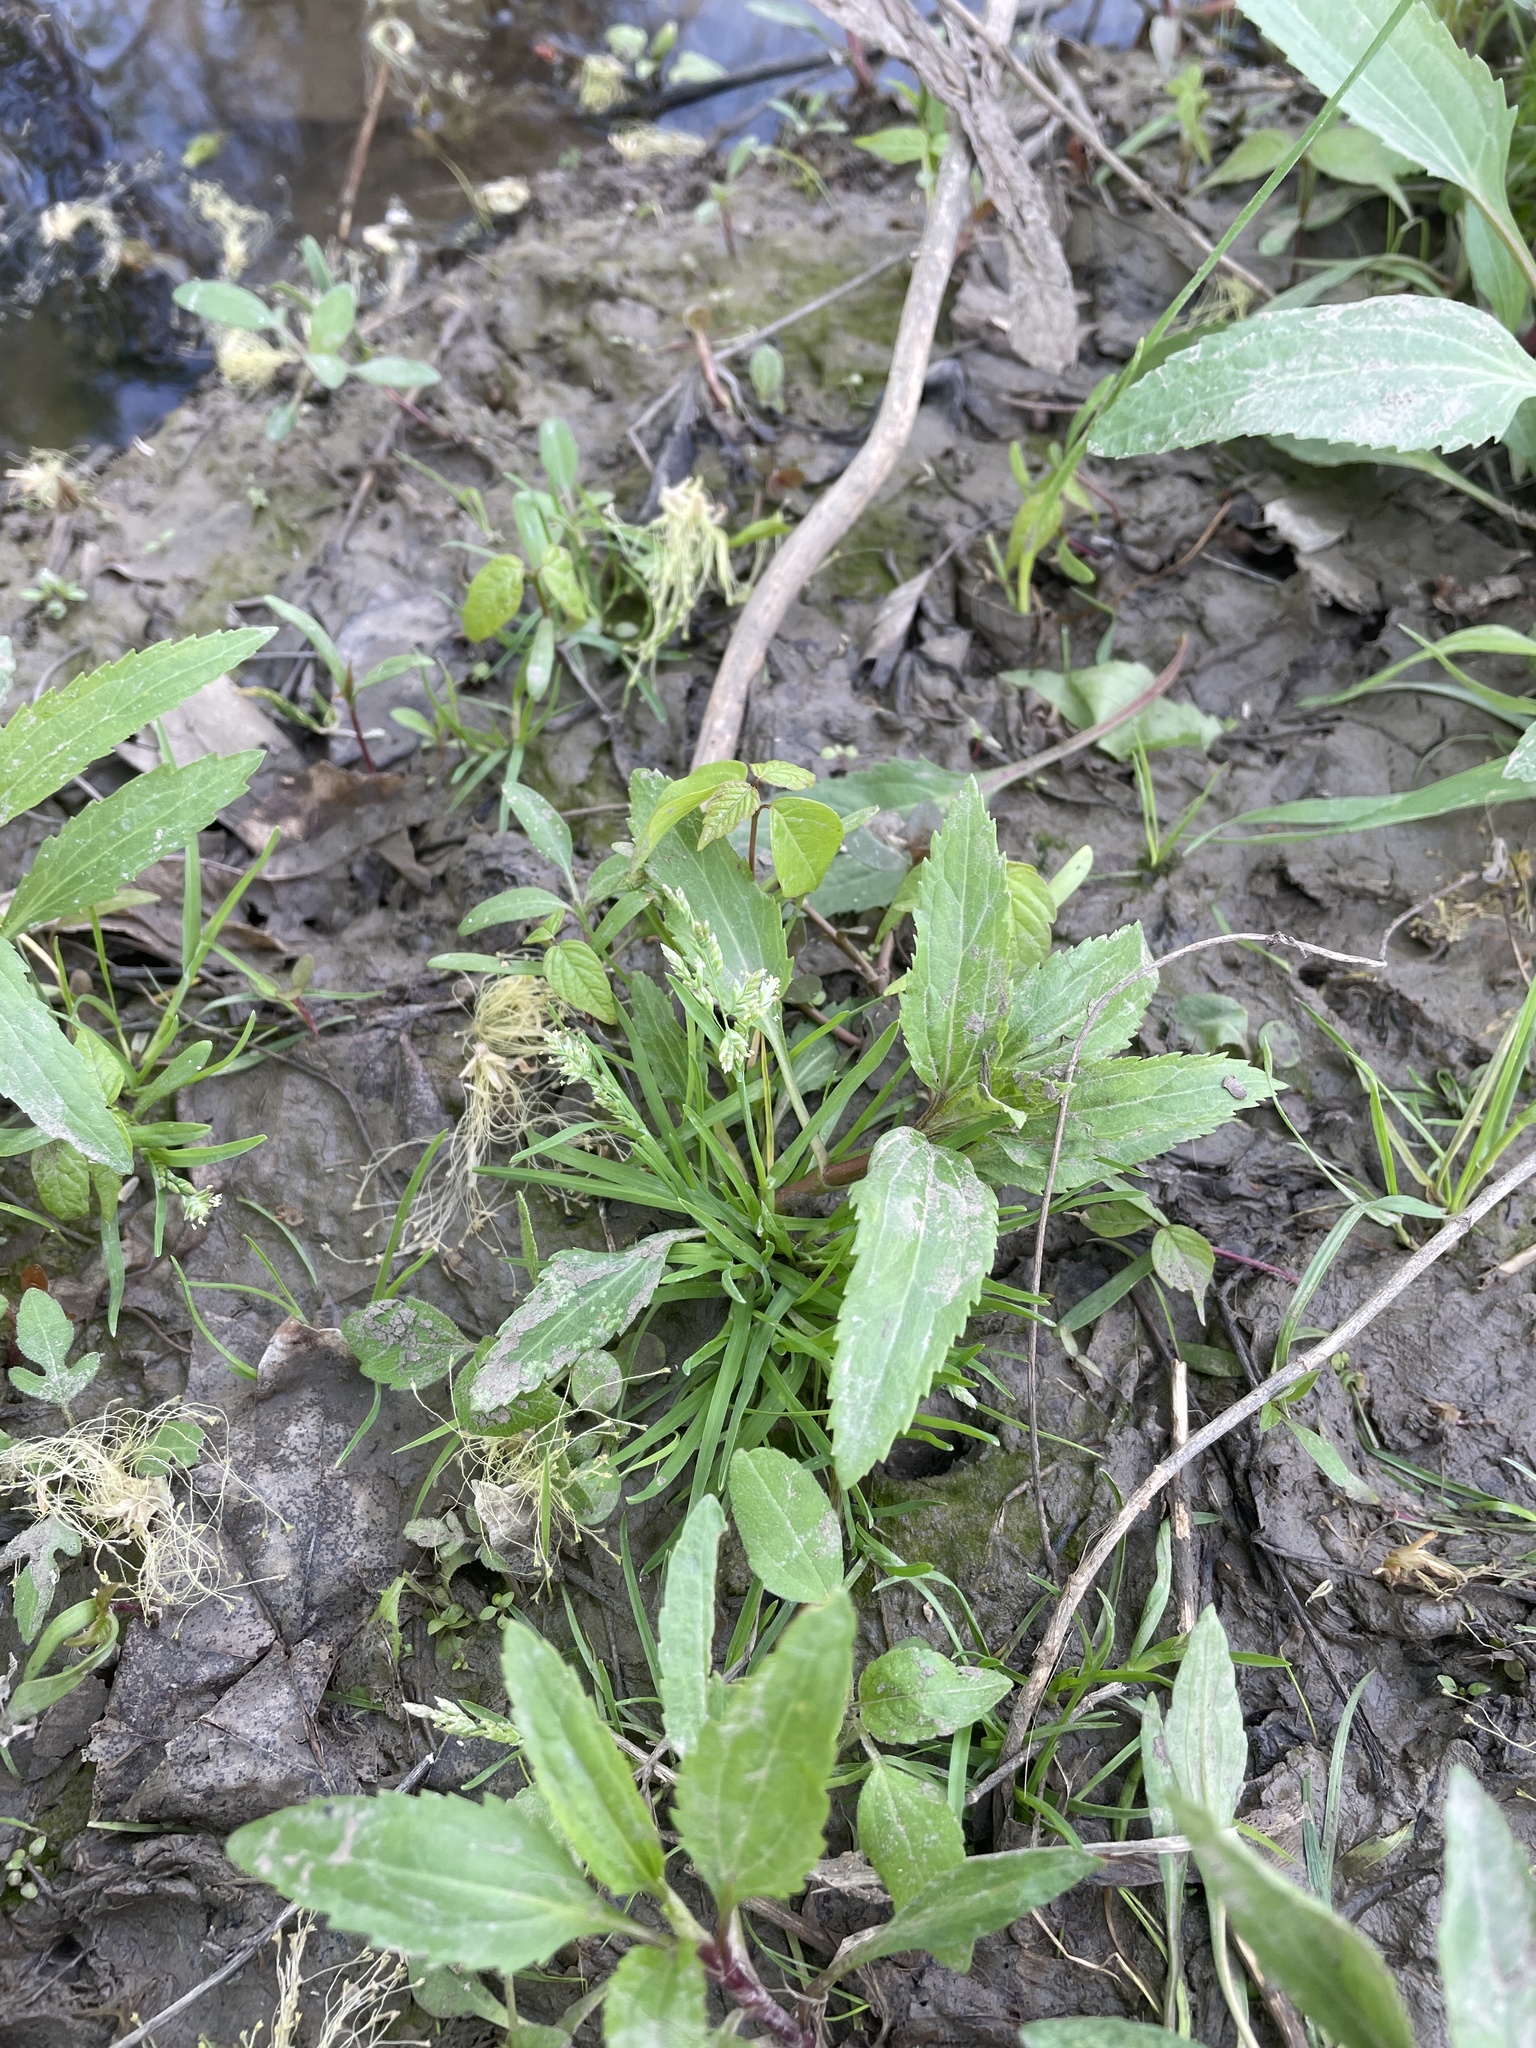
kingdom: Plantae
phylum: Tracheophyta
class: Liliopsida
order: Poales
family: Poaceae
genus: Poa
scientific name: Poa annua
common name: Annual bluegrass
